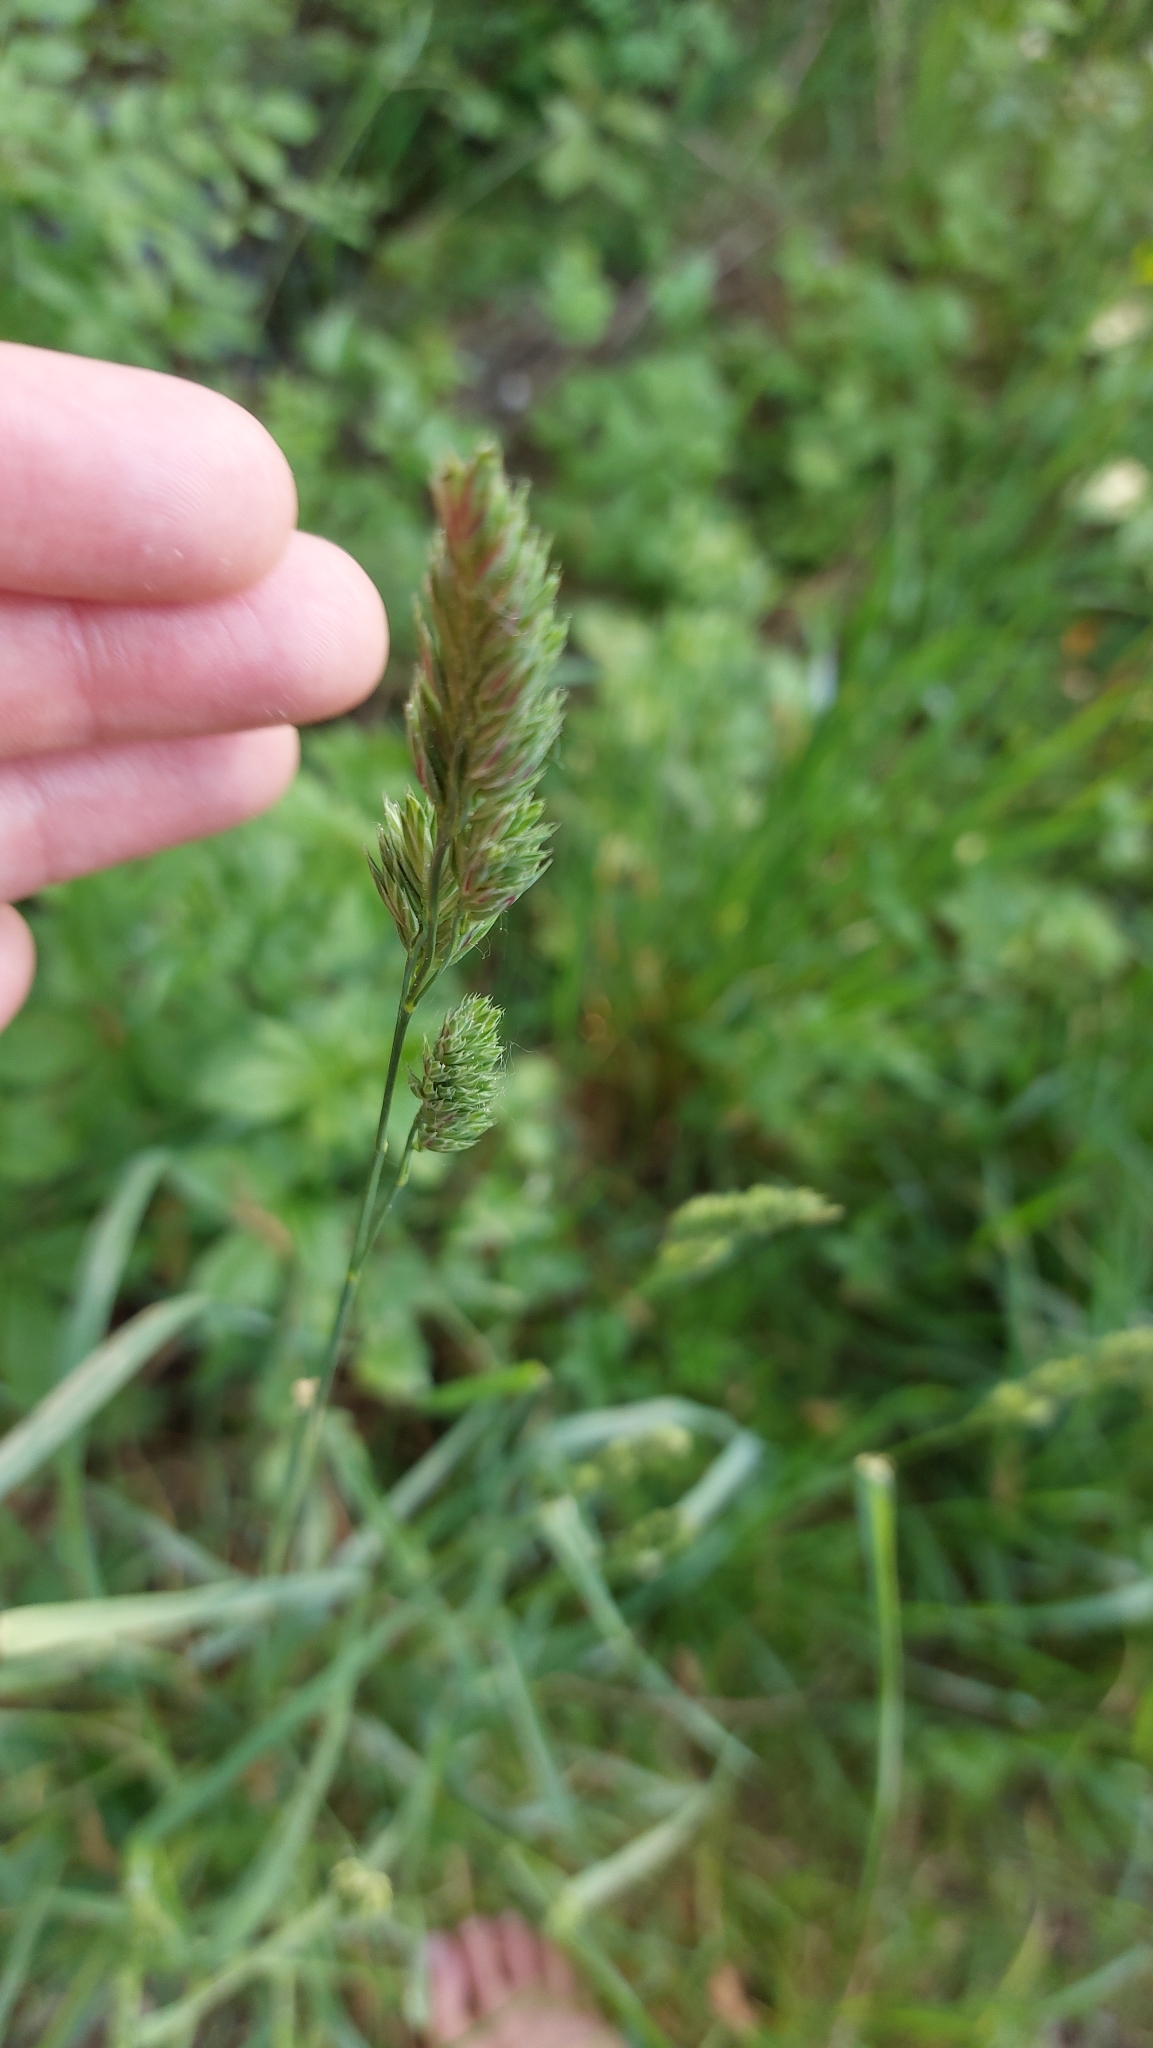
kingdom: Plantae
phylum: Tracheophyta
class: Liliopsida
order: Poales
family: Poaceae
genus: Dactylis
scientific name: Dactylis glomerata
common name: Orchardgrass
